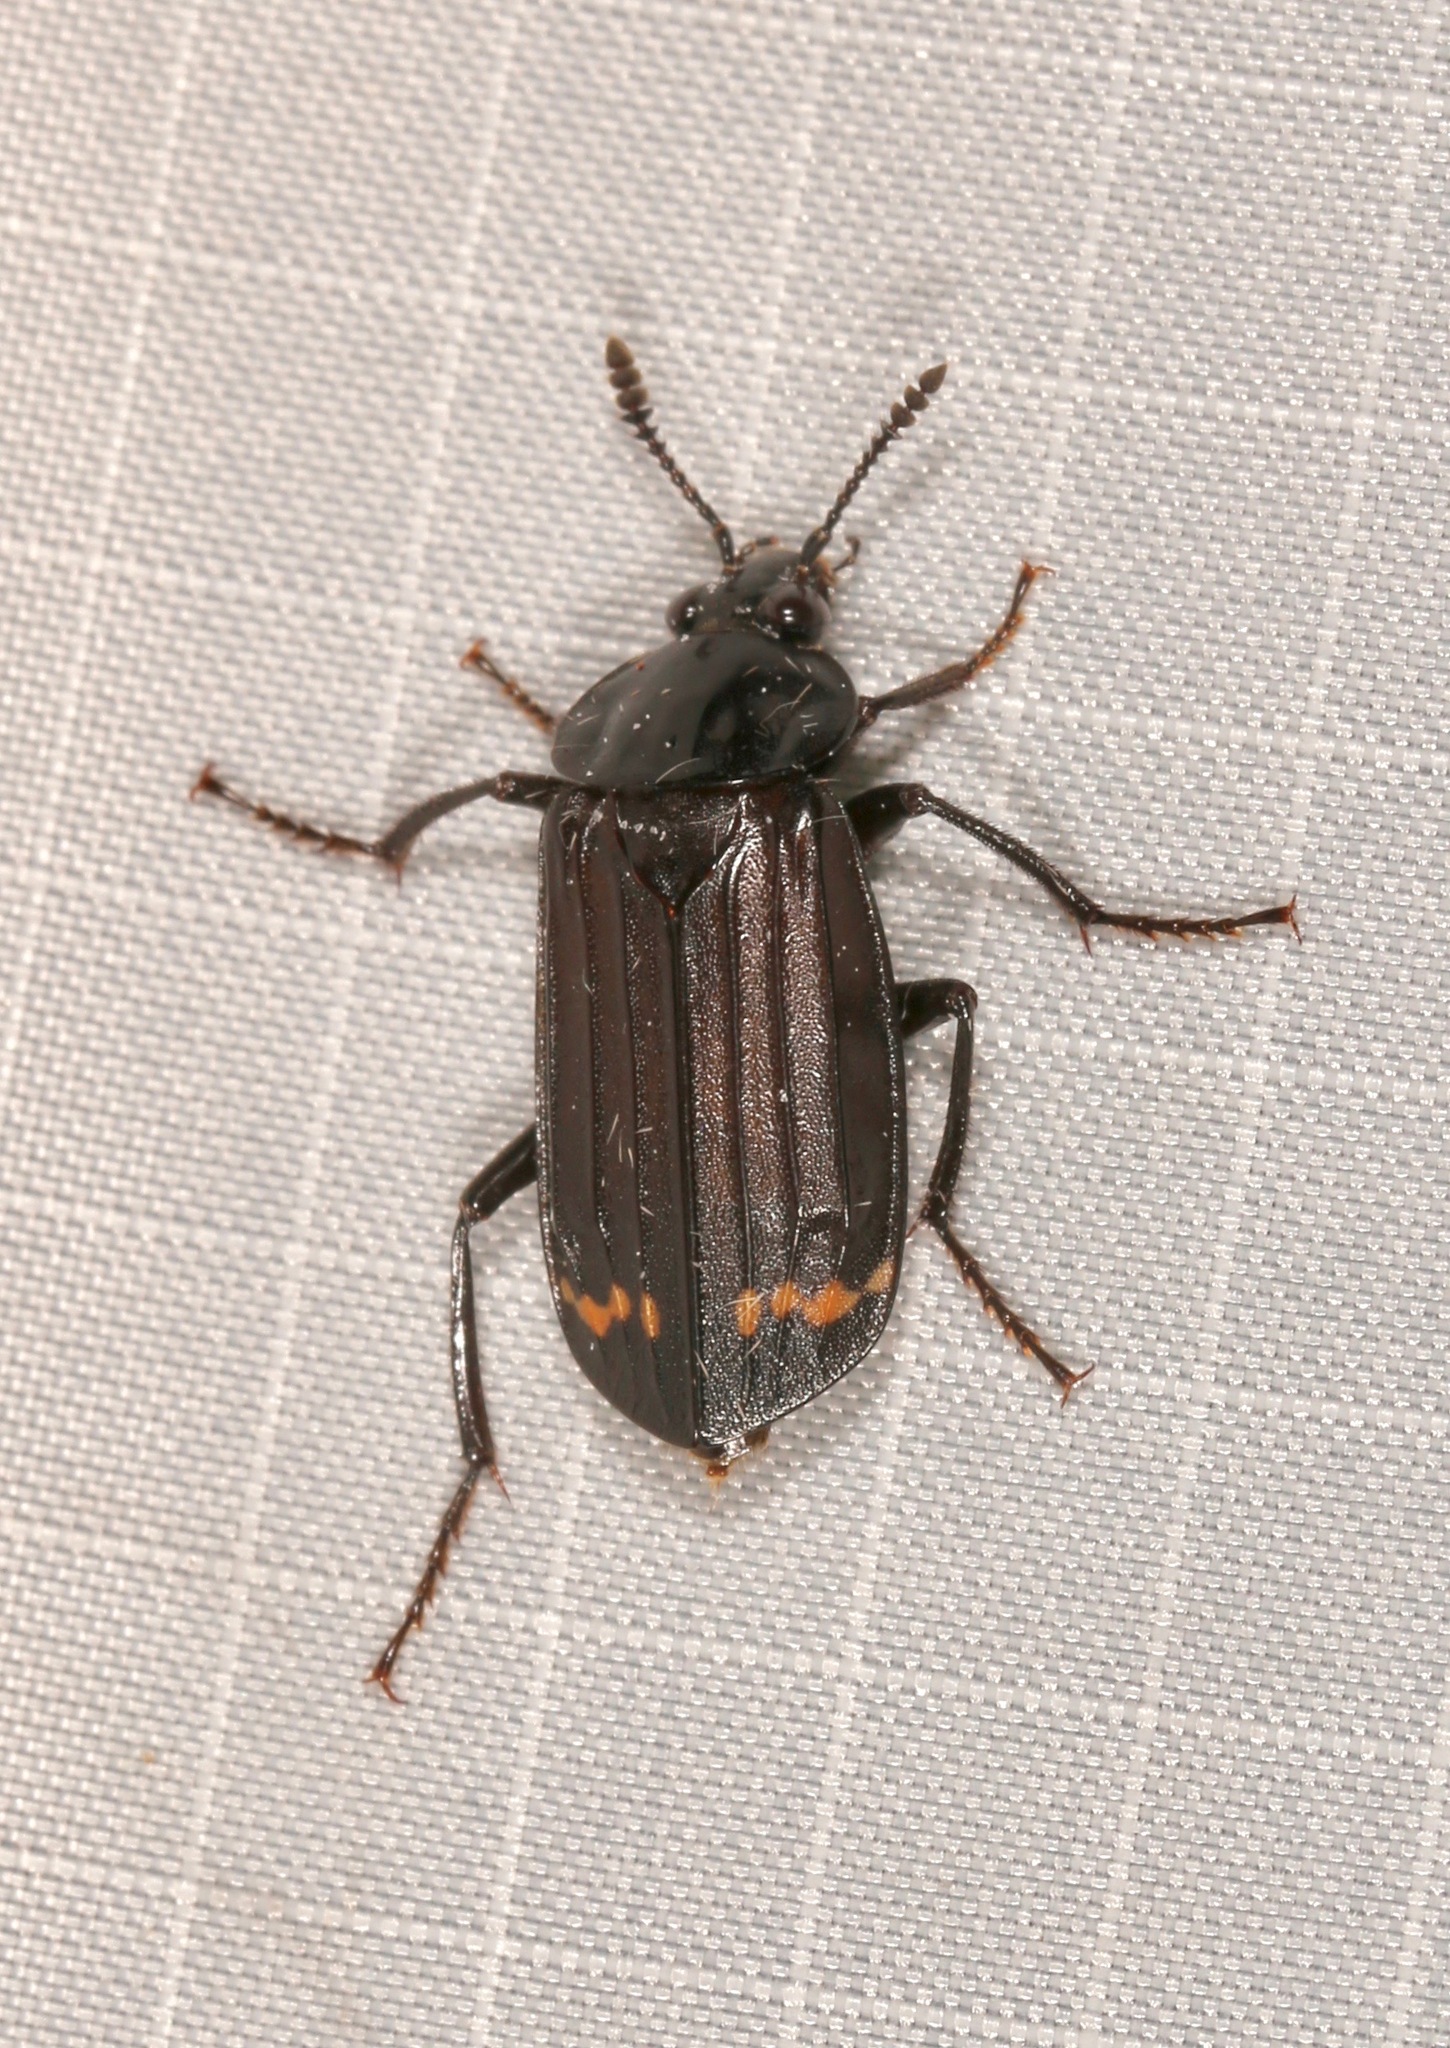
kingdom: Animalia
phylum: Arthropoda
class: Insecta
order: Coleoptera
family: Staphylinidae
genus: Necrodes
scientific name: Necrodes surinamensis
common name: Red-lined carrion beetle
